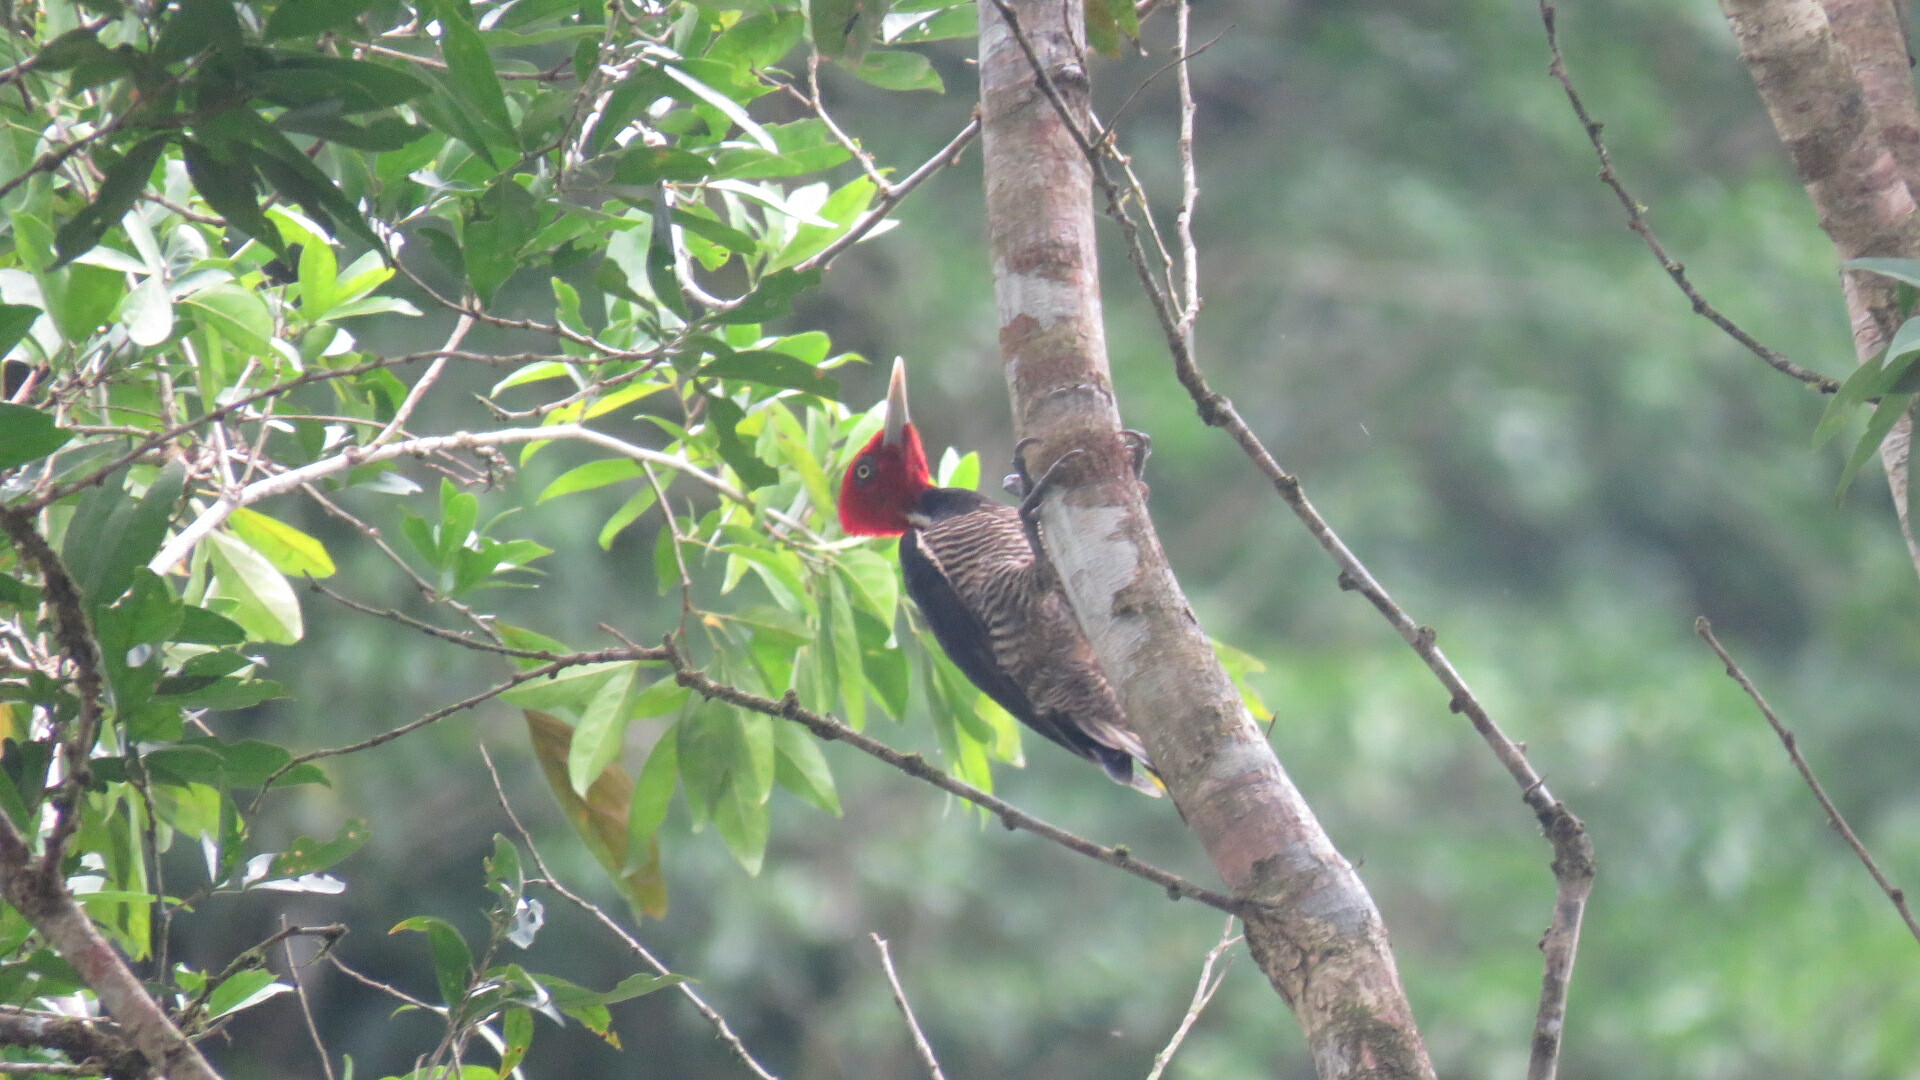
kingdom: Animalia
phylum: Chordata
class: Aves
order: Piciformes
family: Picidae
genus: Campephilus
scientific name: Campephilus guatemalensis
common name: Pale-billed woodpecker
